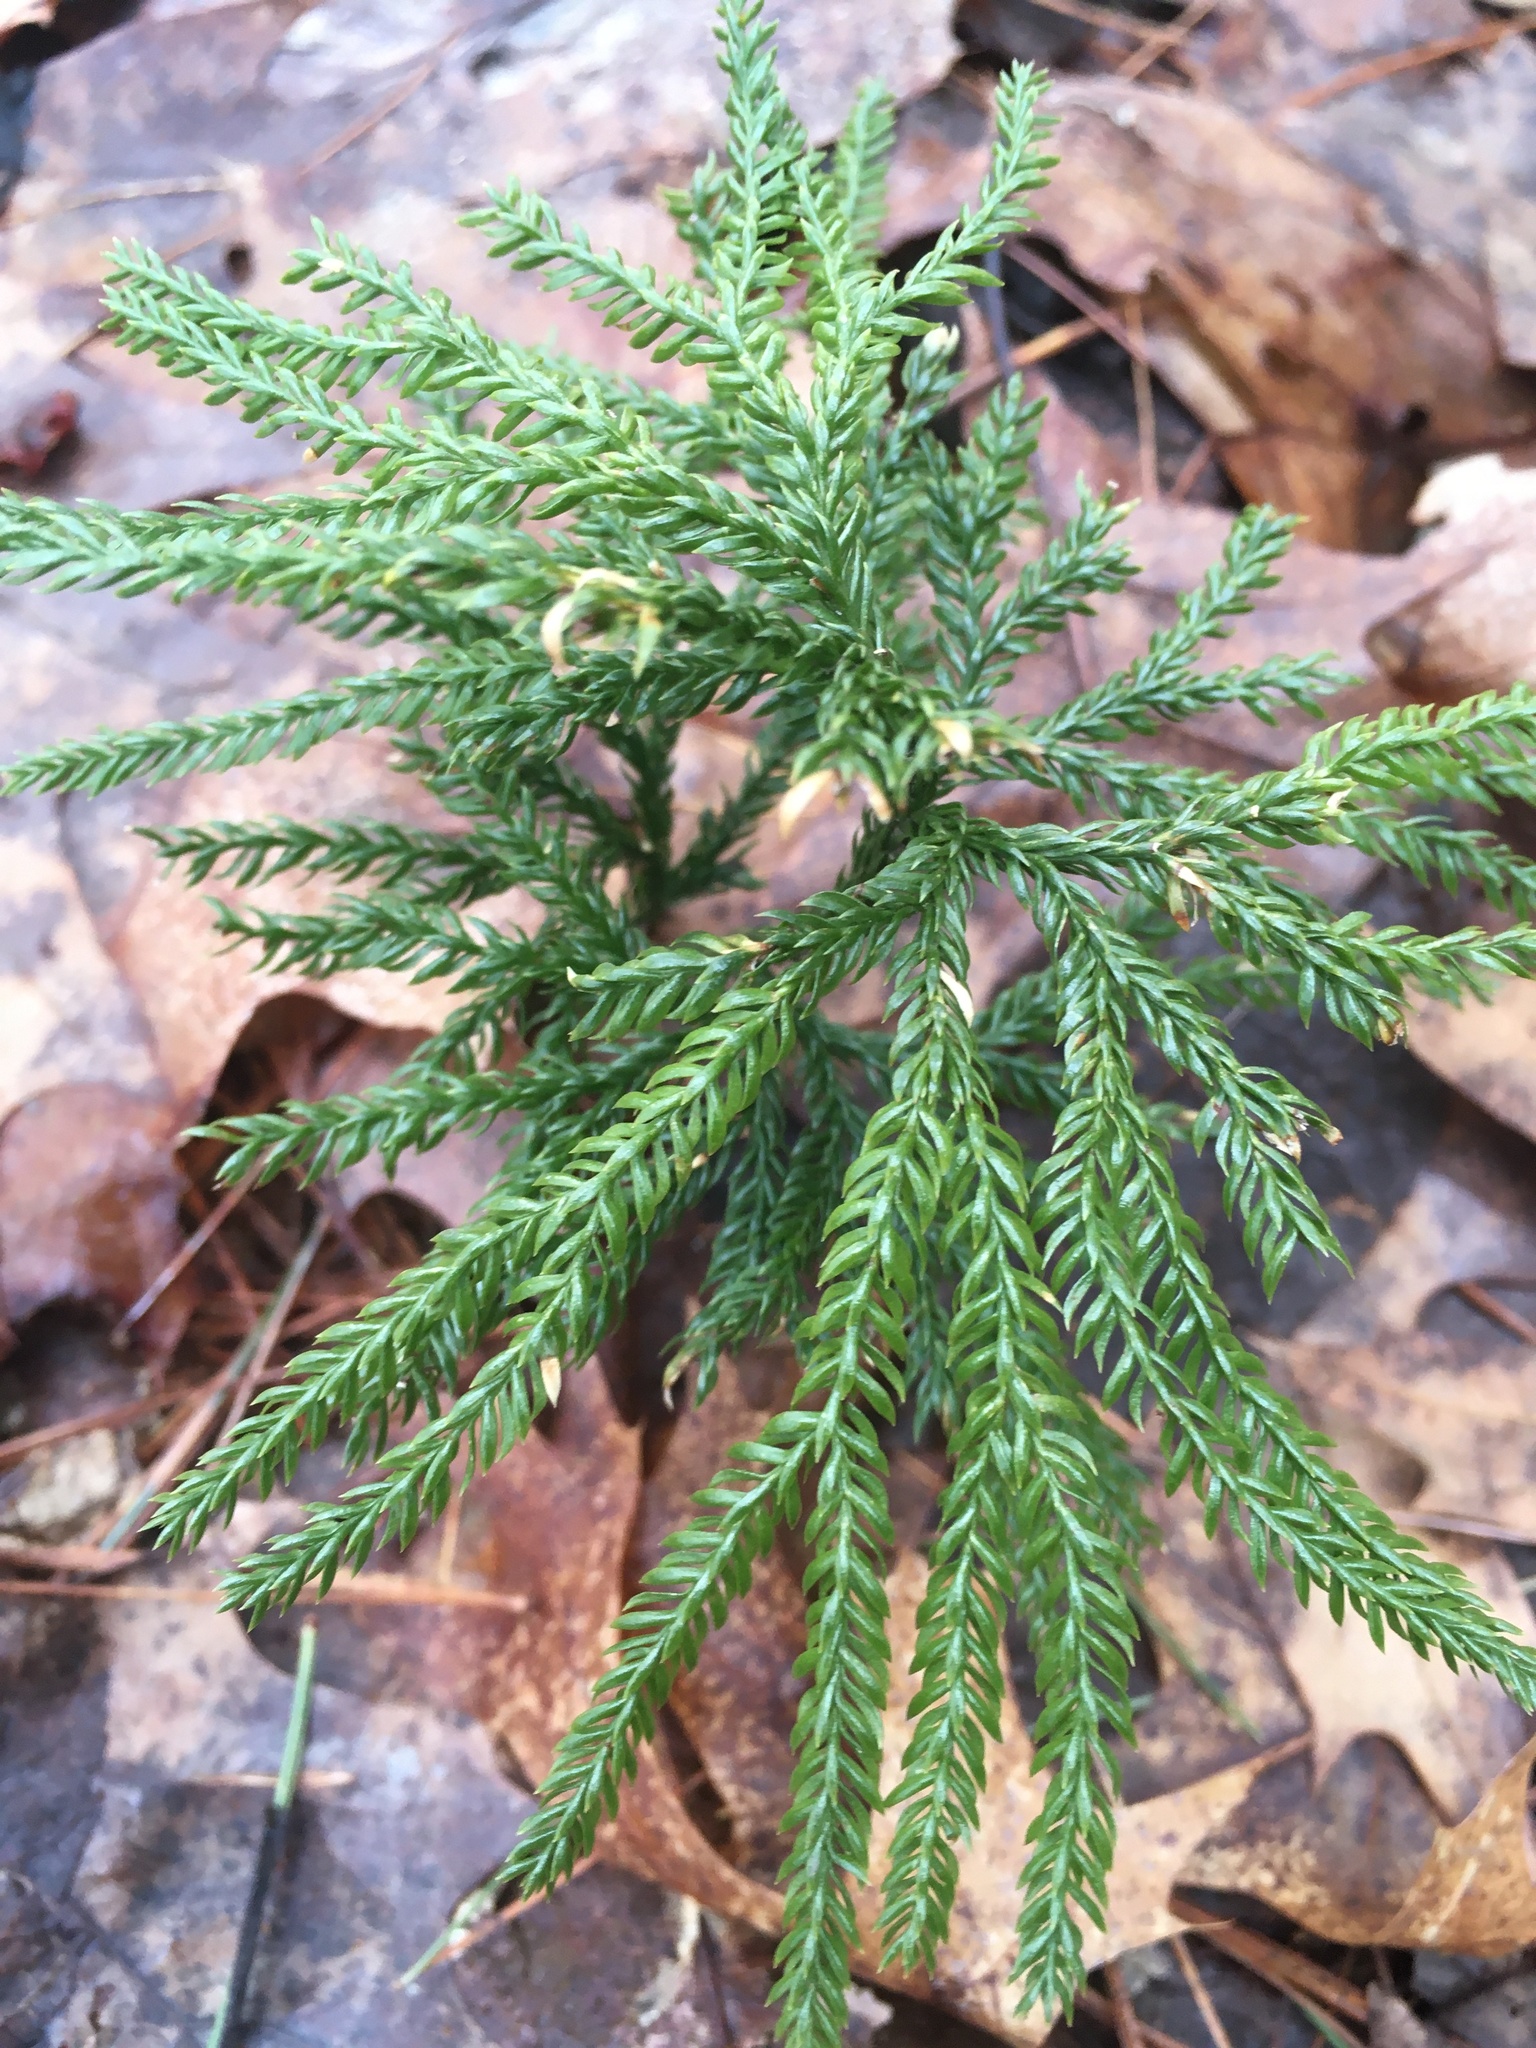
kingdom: Plantae
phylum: Tracheophyta
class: Lycopodiopsida
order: Lycopodiales
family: Lycopodiaceae
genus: Dendrolycopodium
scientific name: Dendrolycopodium obscurum
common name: Common ground-pine
